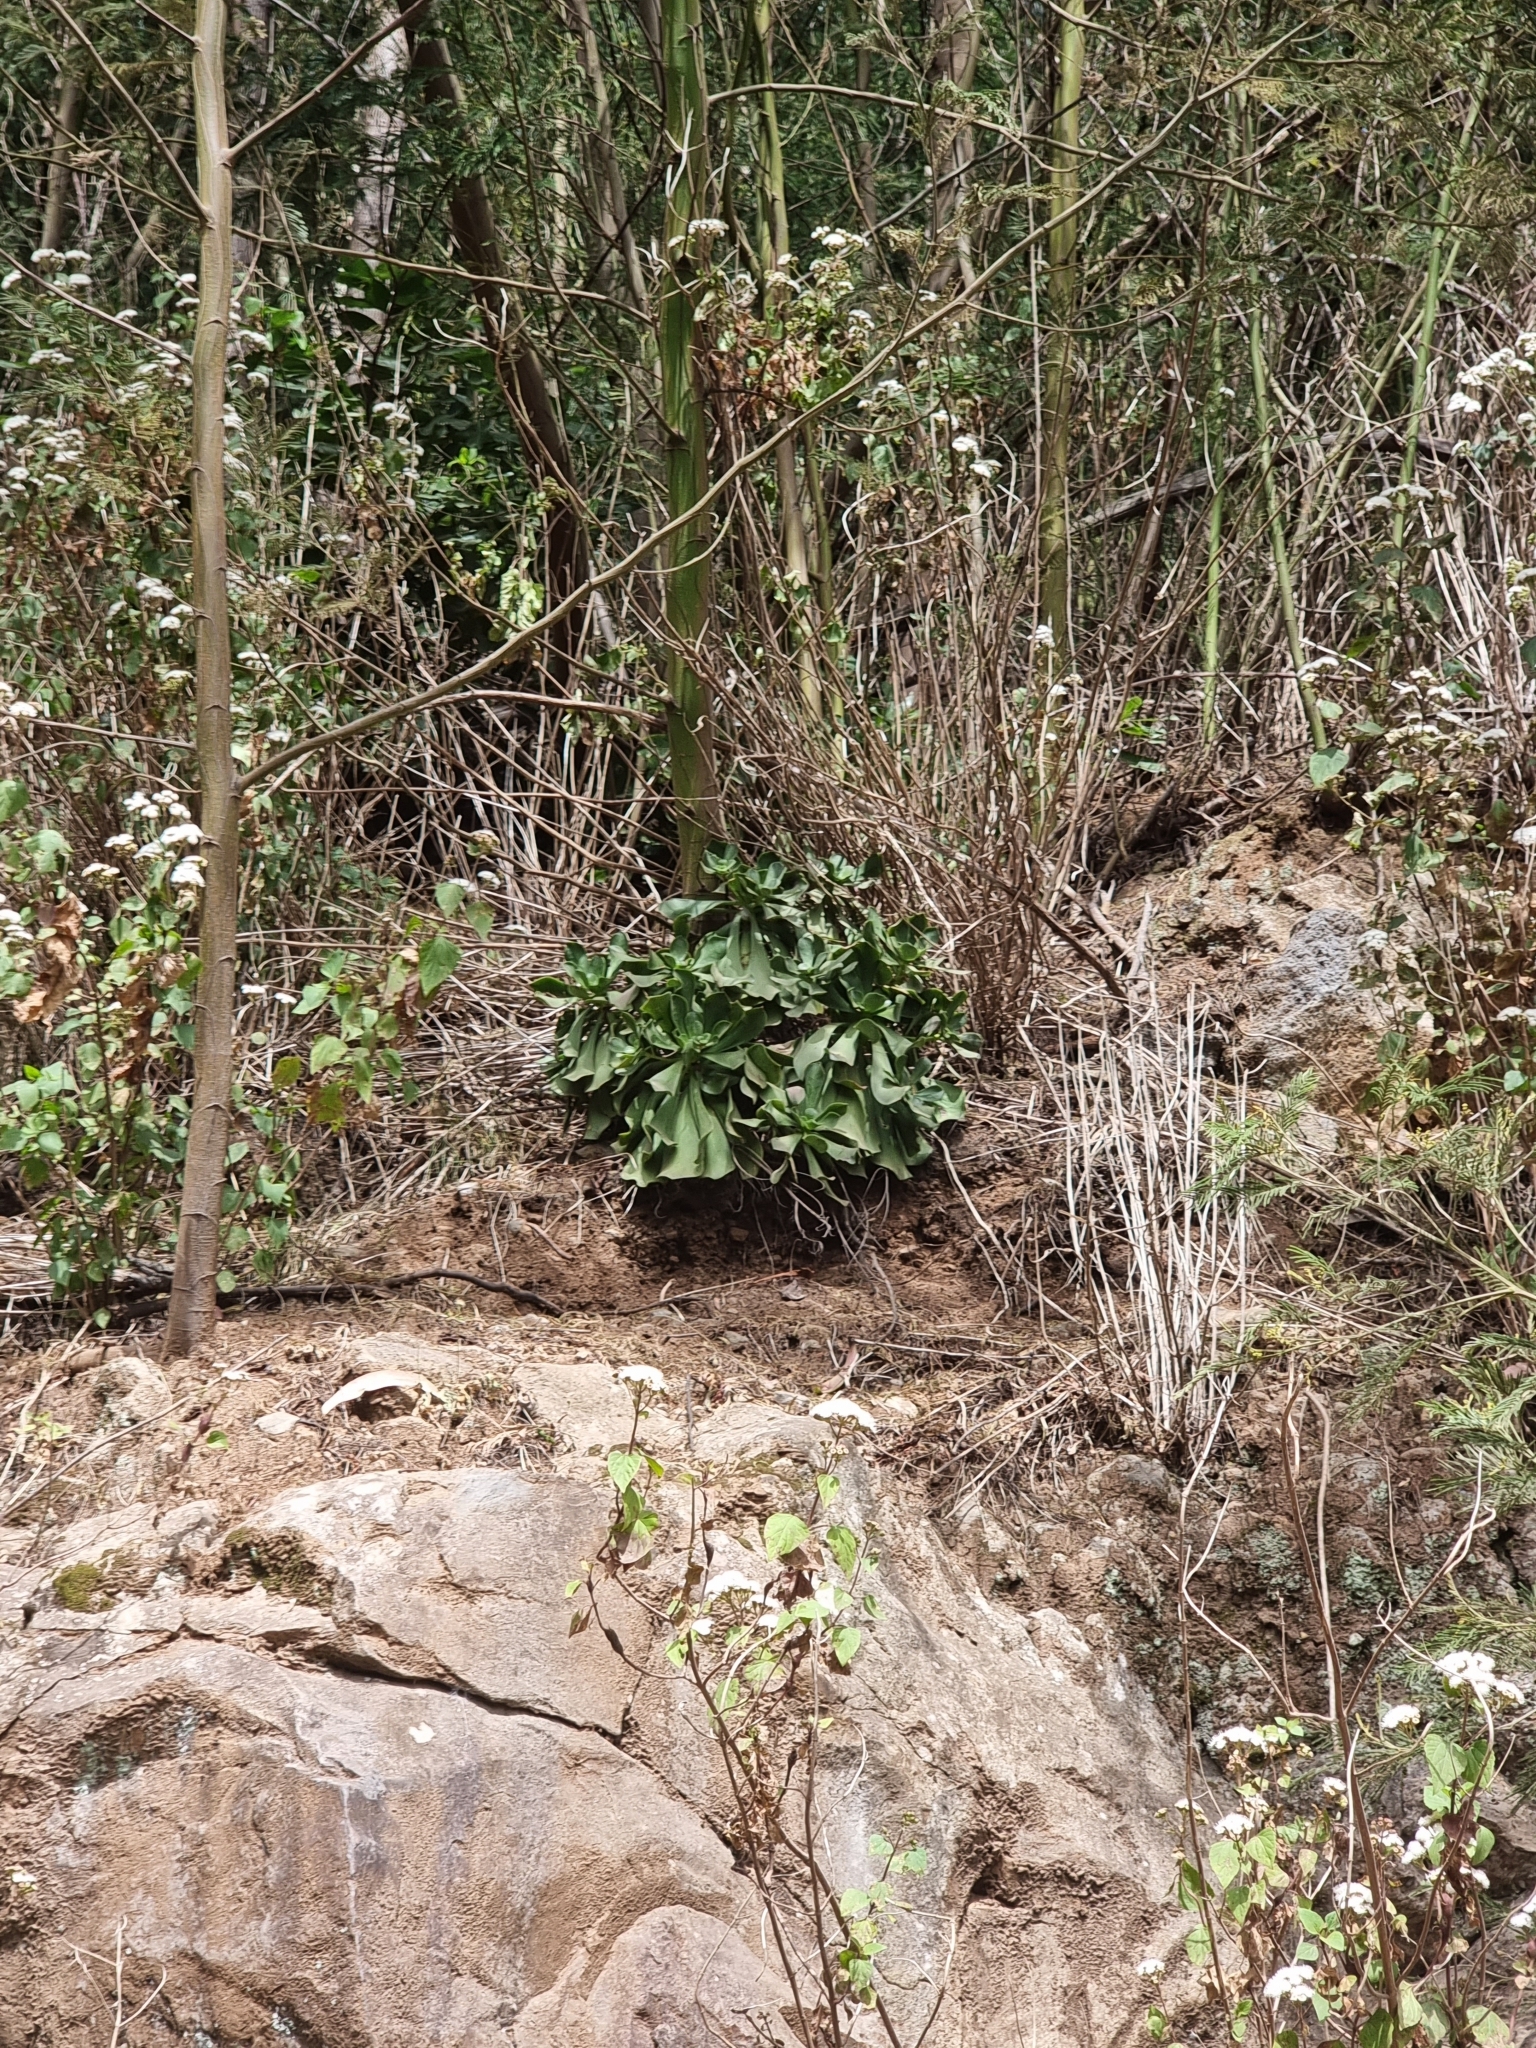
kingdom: Plantae
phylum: Tracheophyta
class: Magnoliopsida
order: Saxifragales
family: Crassulaceae
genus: Aeonium
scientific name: Aeonium glutinosum
